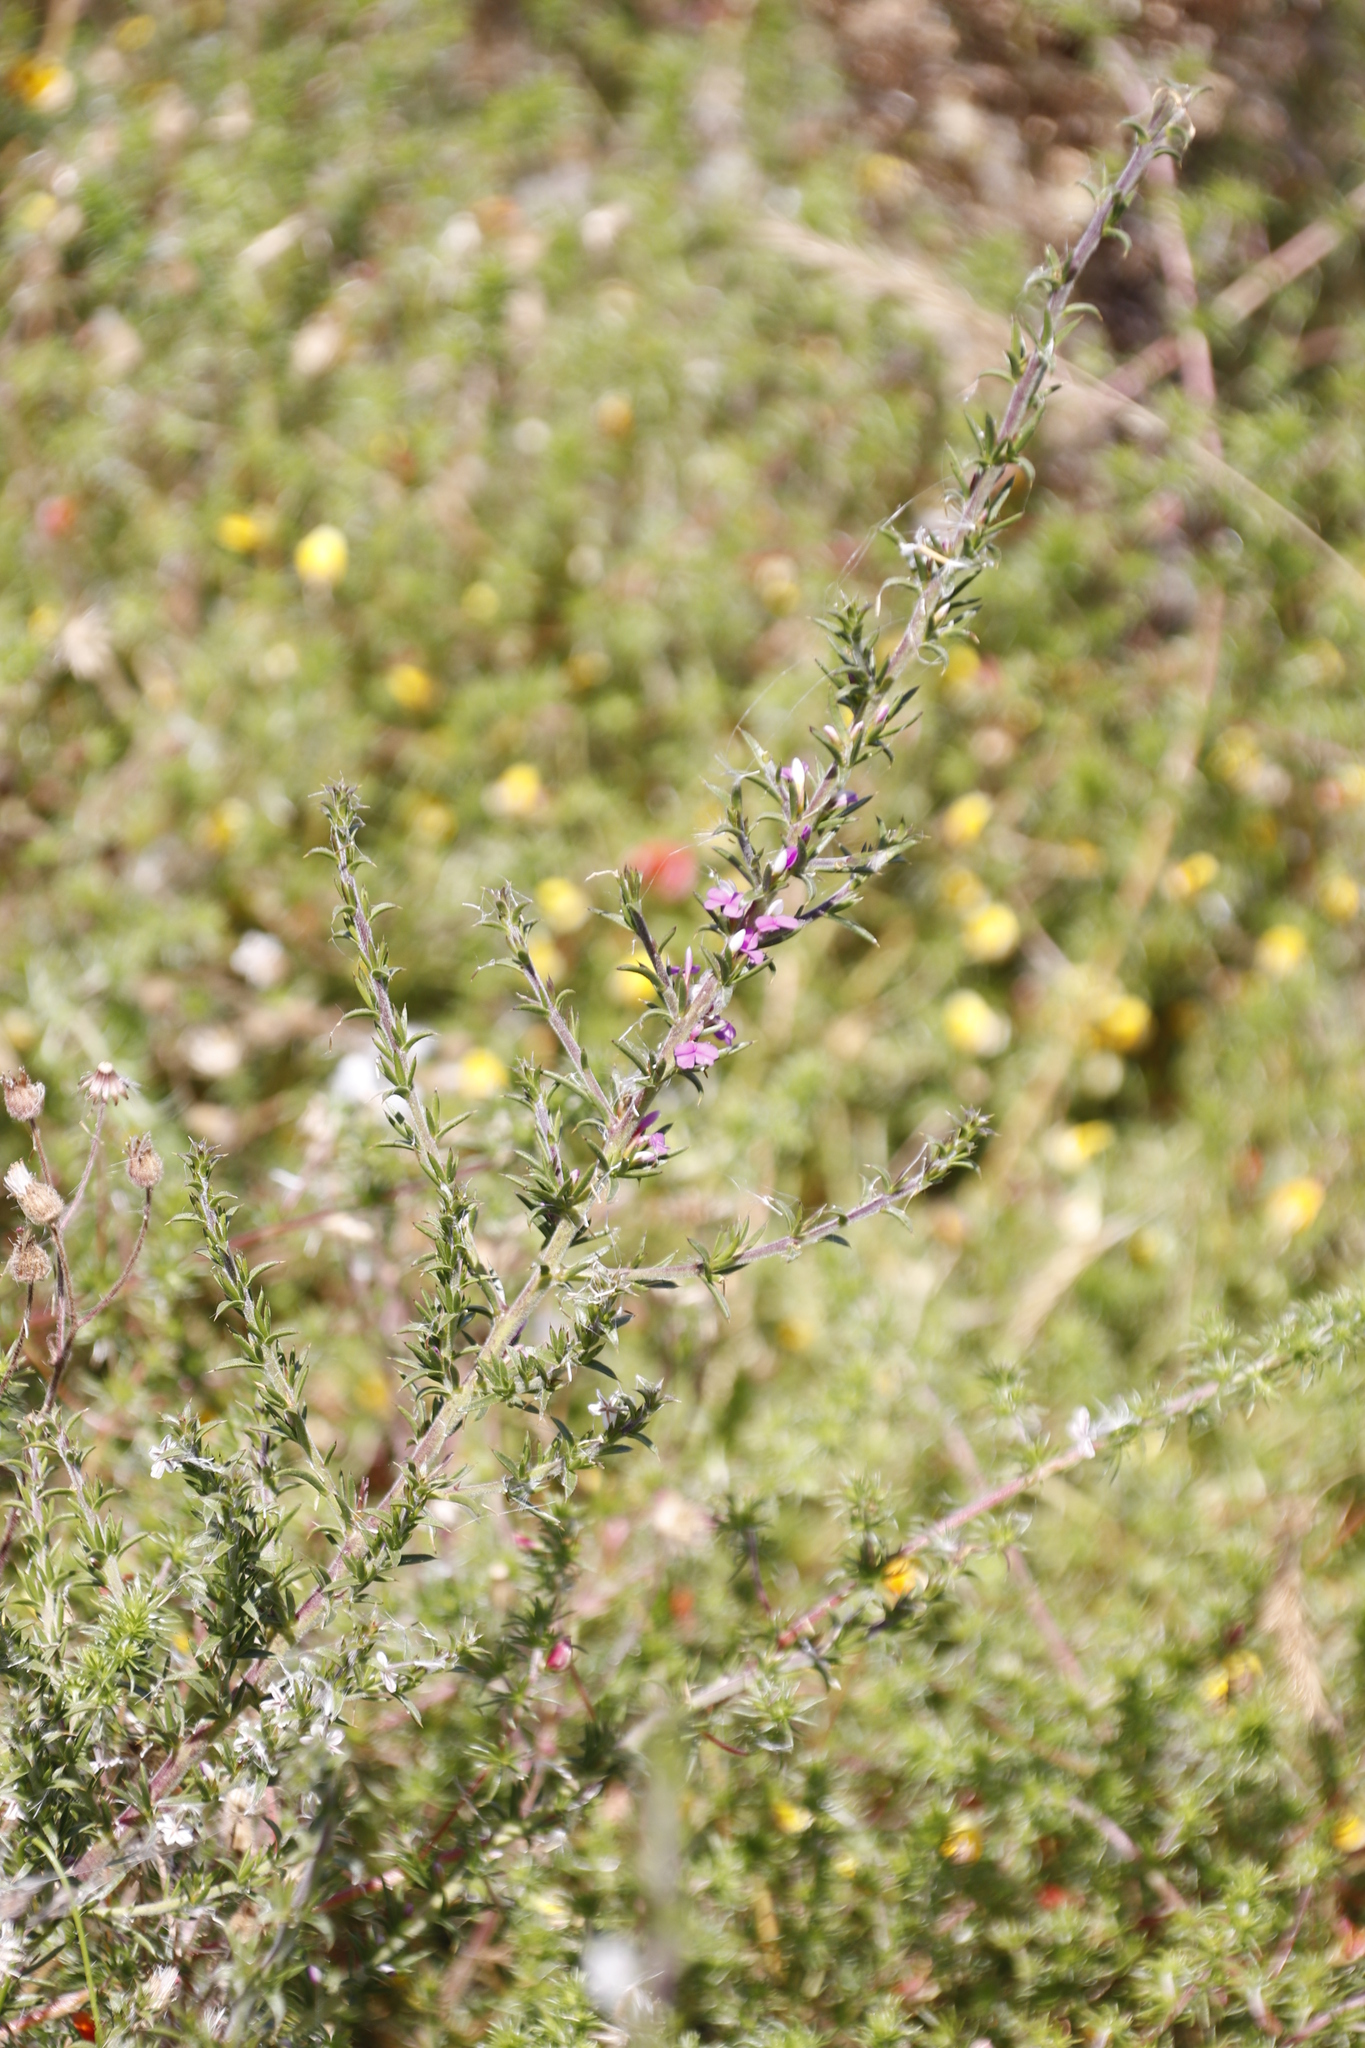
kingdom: Plantae
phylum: Tracheophyta
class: Magnoliopsida
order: Fabales
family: Polygalaceae
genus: Muraltia
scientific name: Muraltia heisteria
